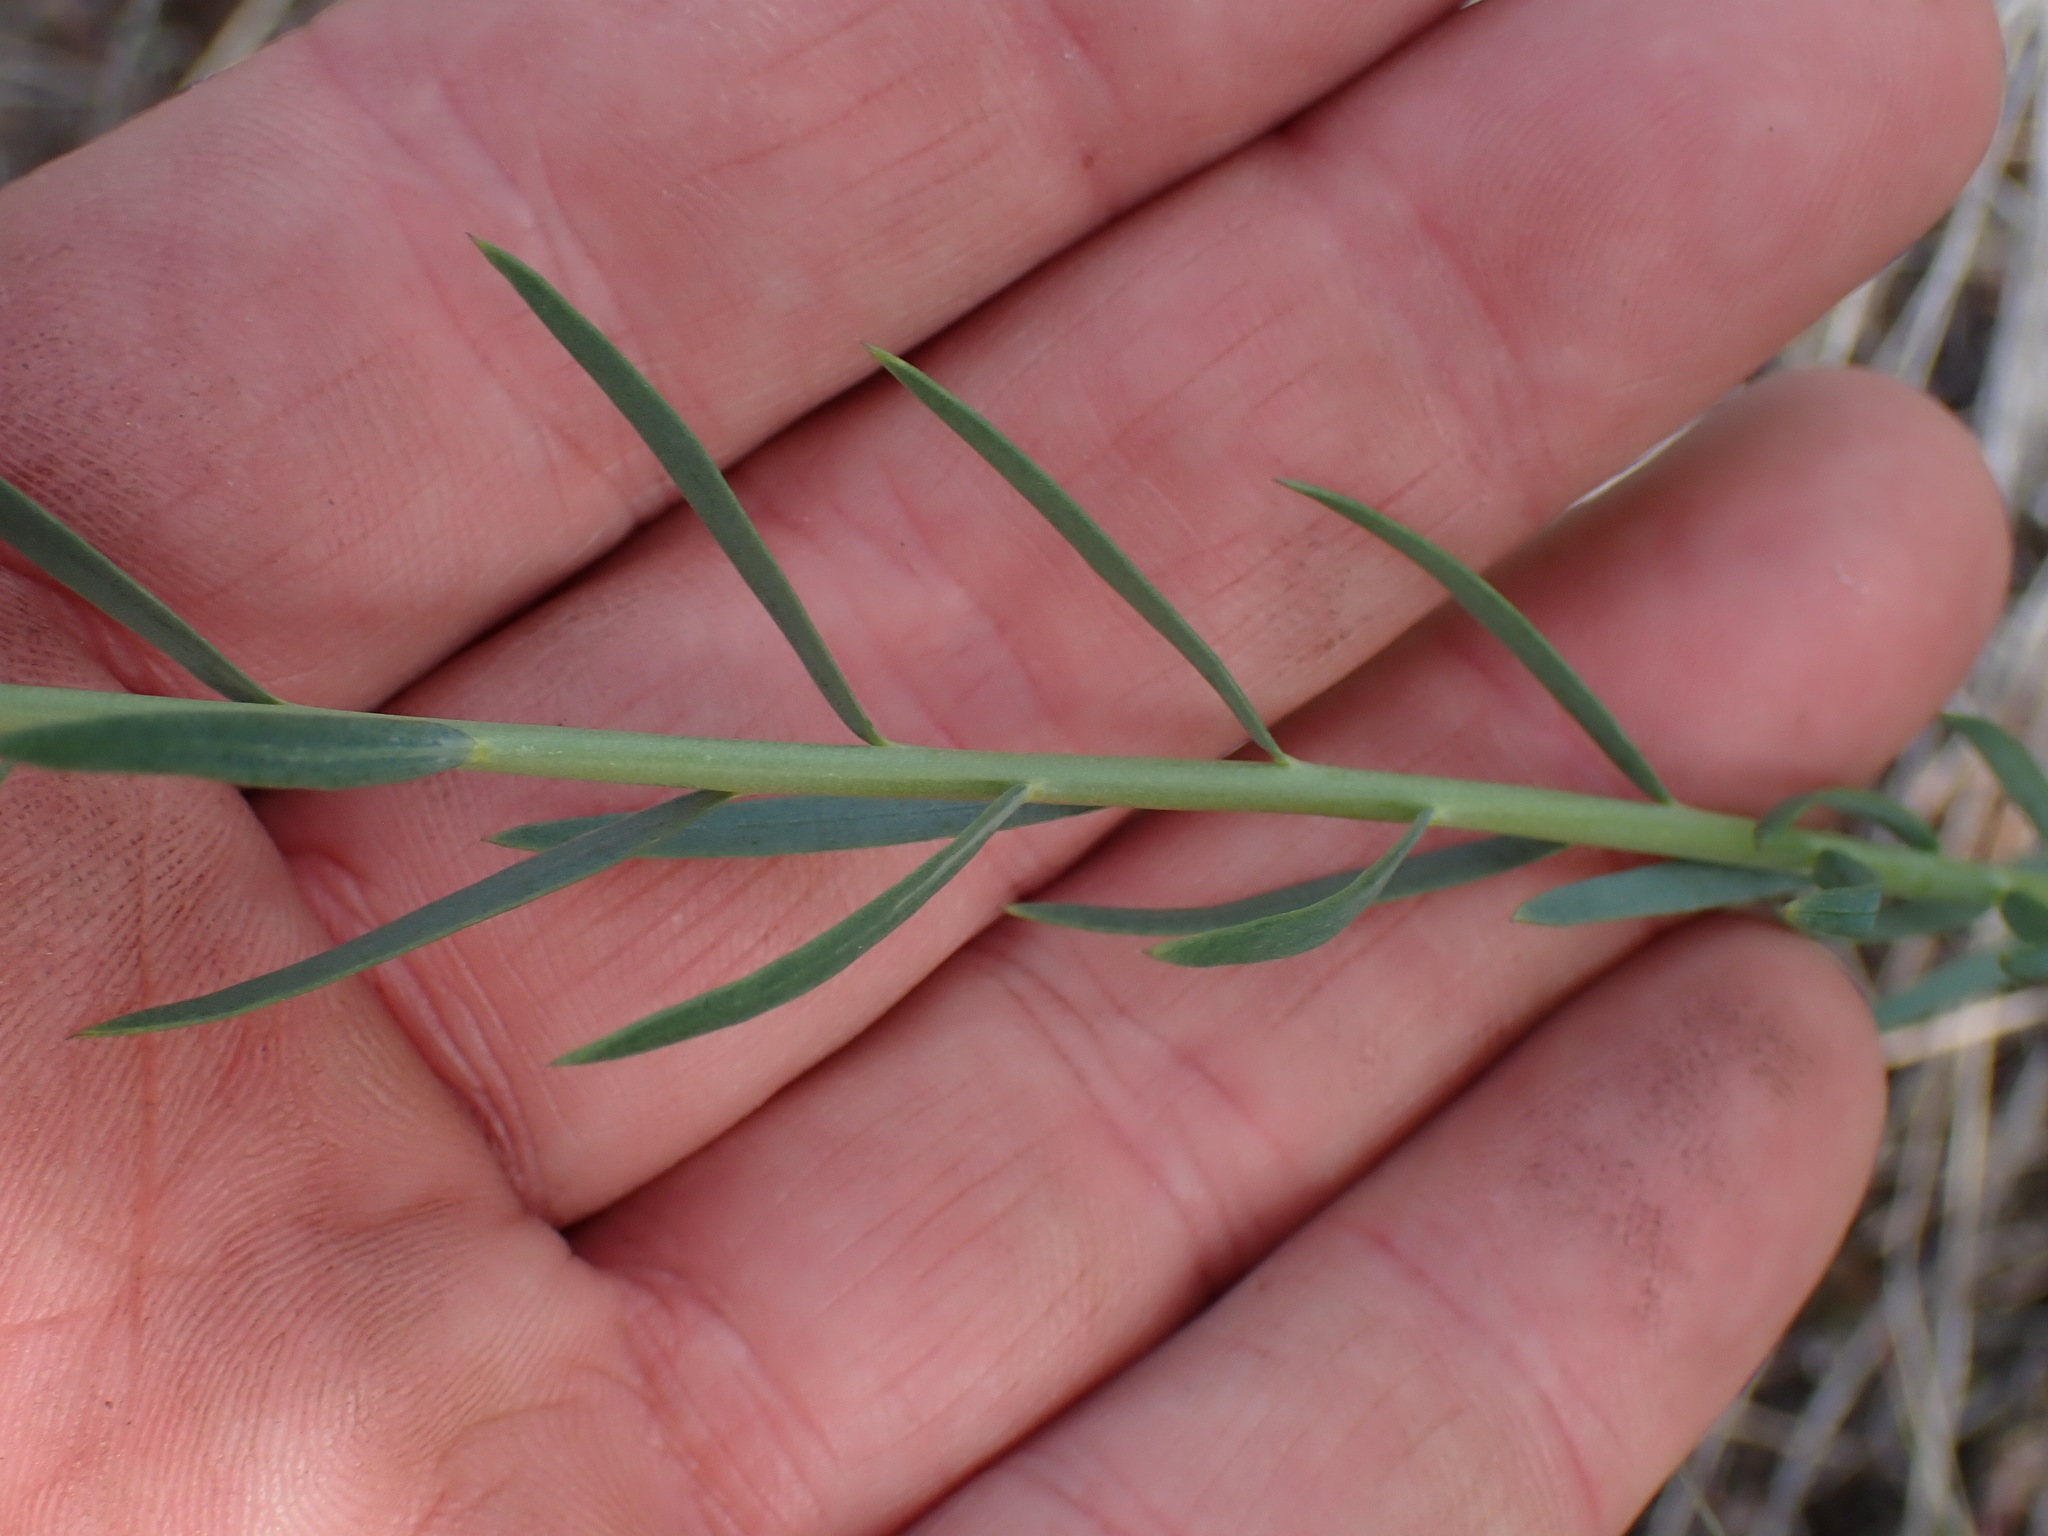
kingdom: Plantae
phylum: Tracheophyta
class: Magnoliopsida
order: Malpighiales
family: Linaceae
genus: Linum
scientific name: Linum lewisii
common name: Prairie flax
